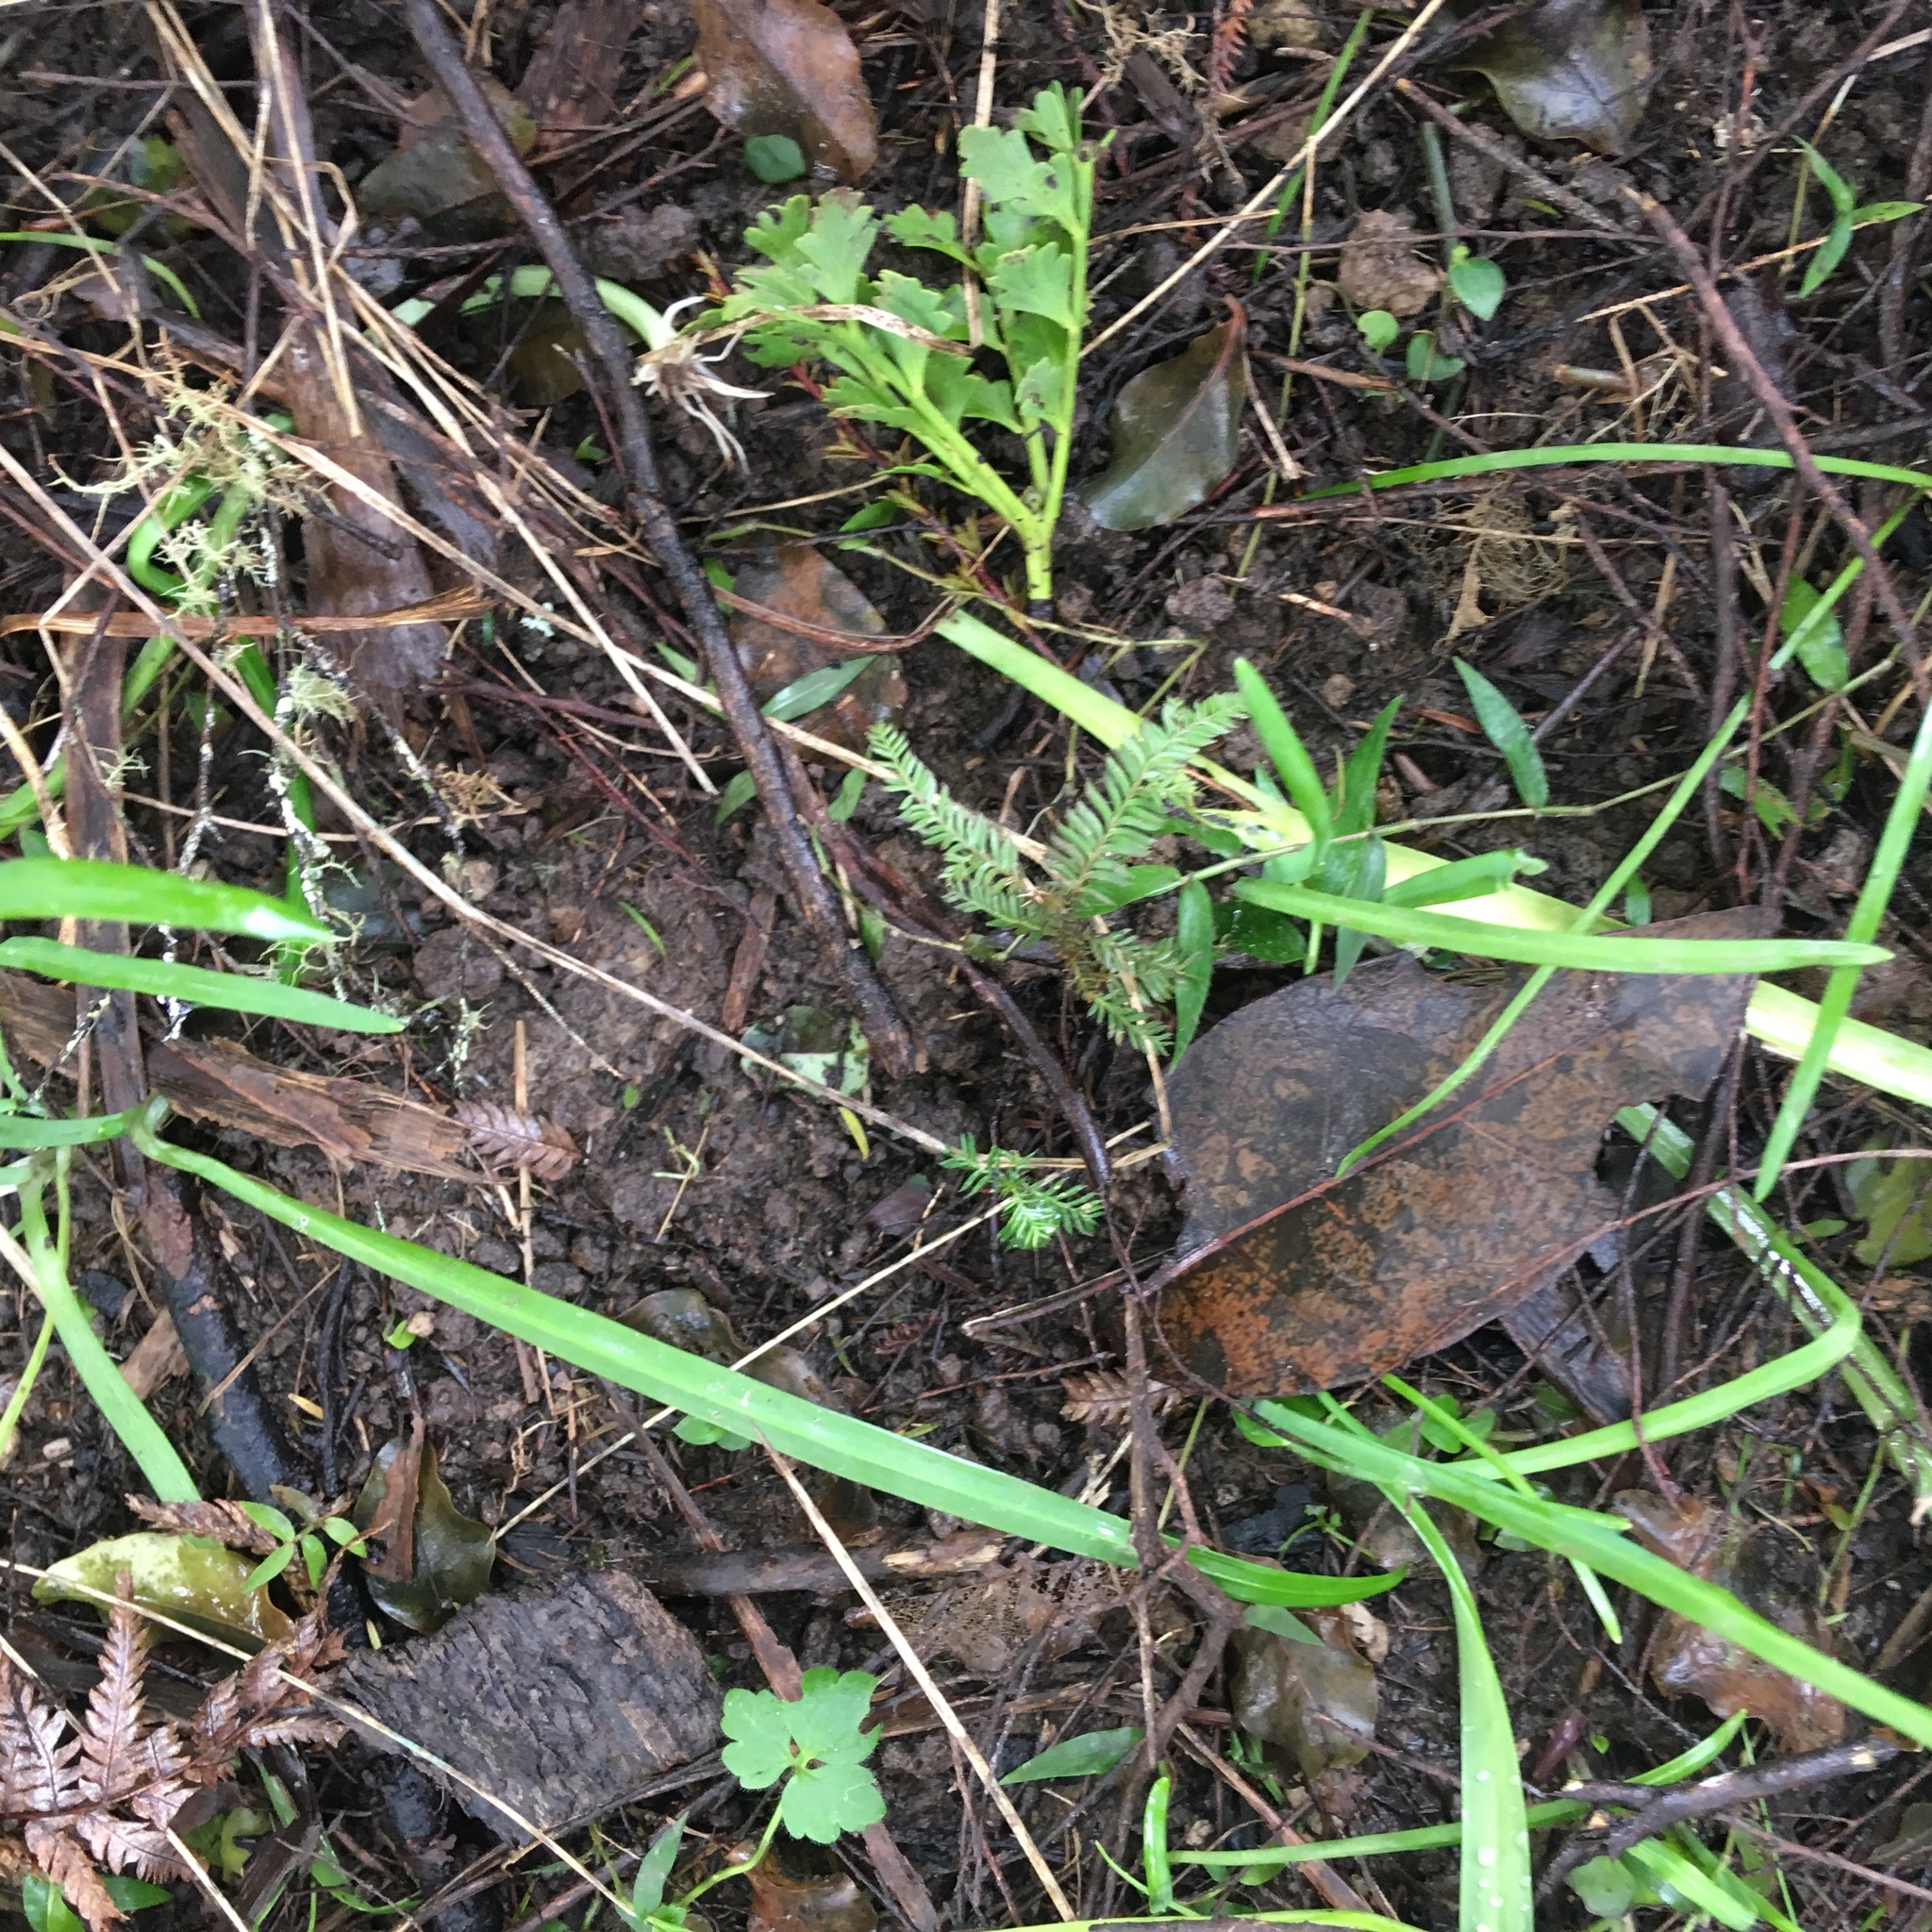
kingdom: Plantae
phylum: Tracheophyta
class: Pinopsida
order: Pinales
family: Podocarpaceae
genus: Dacrycarpus
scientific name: Dacrycarpus dacrydioides
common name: White pine
